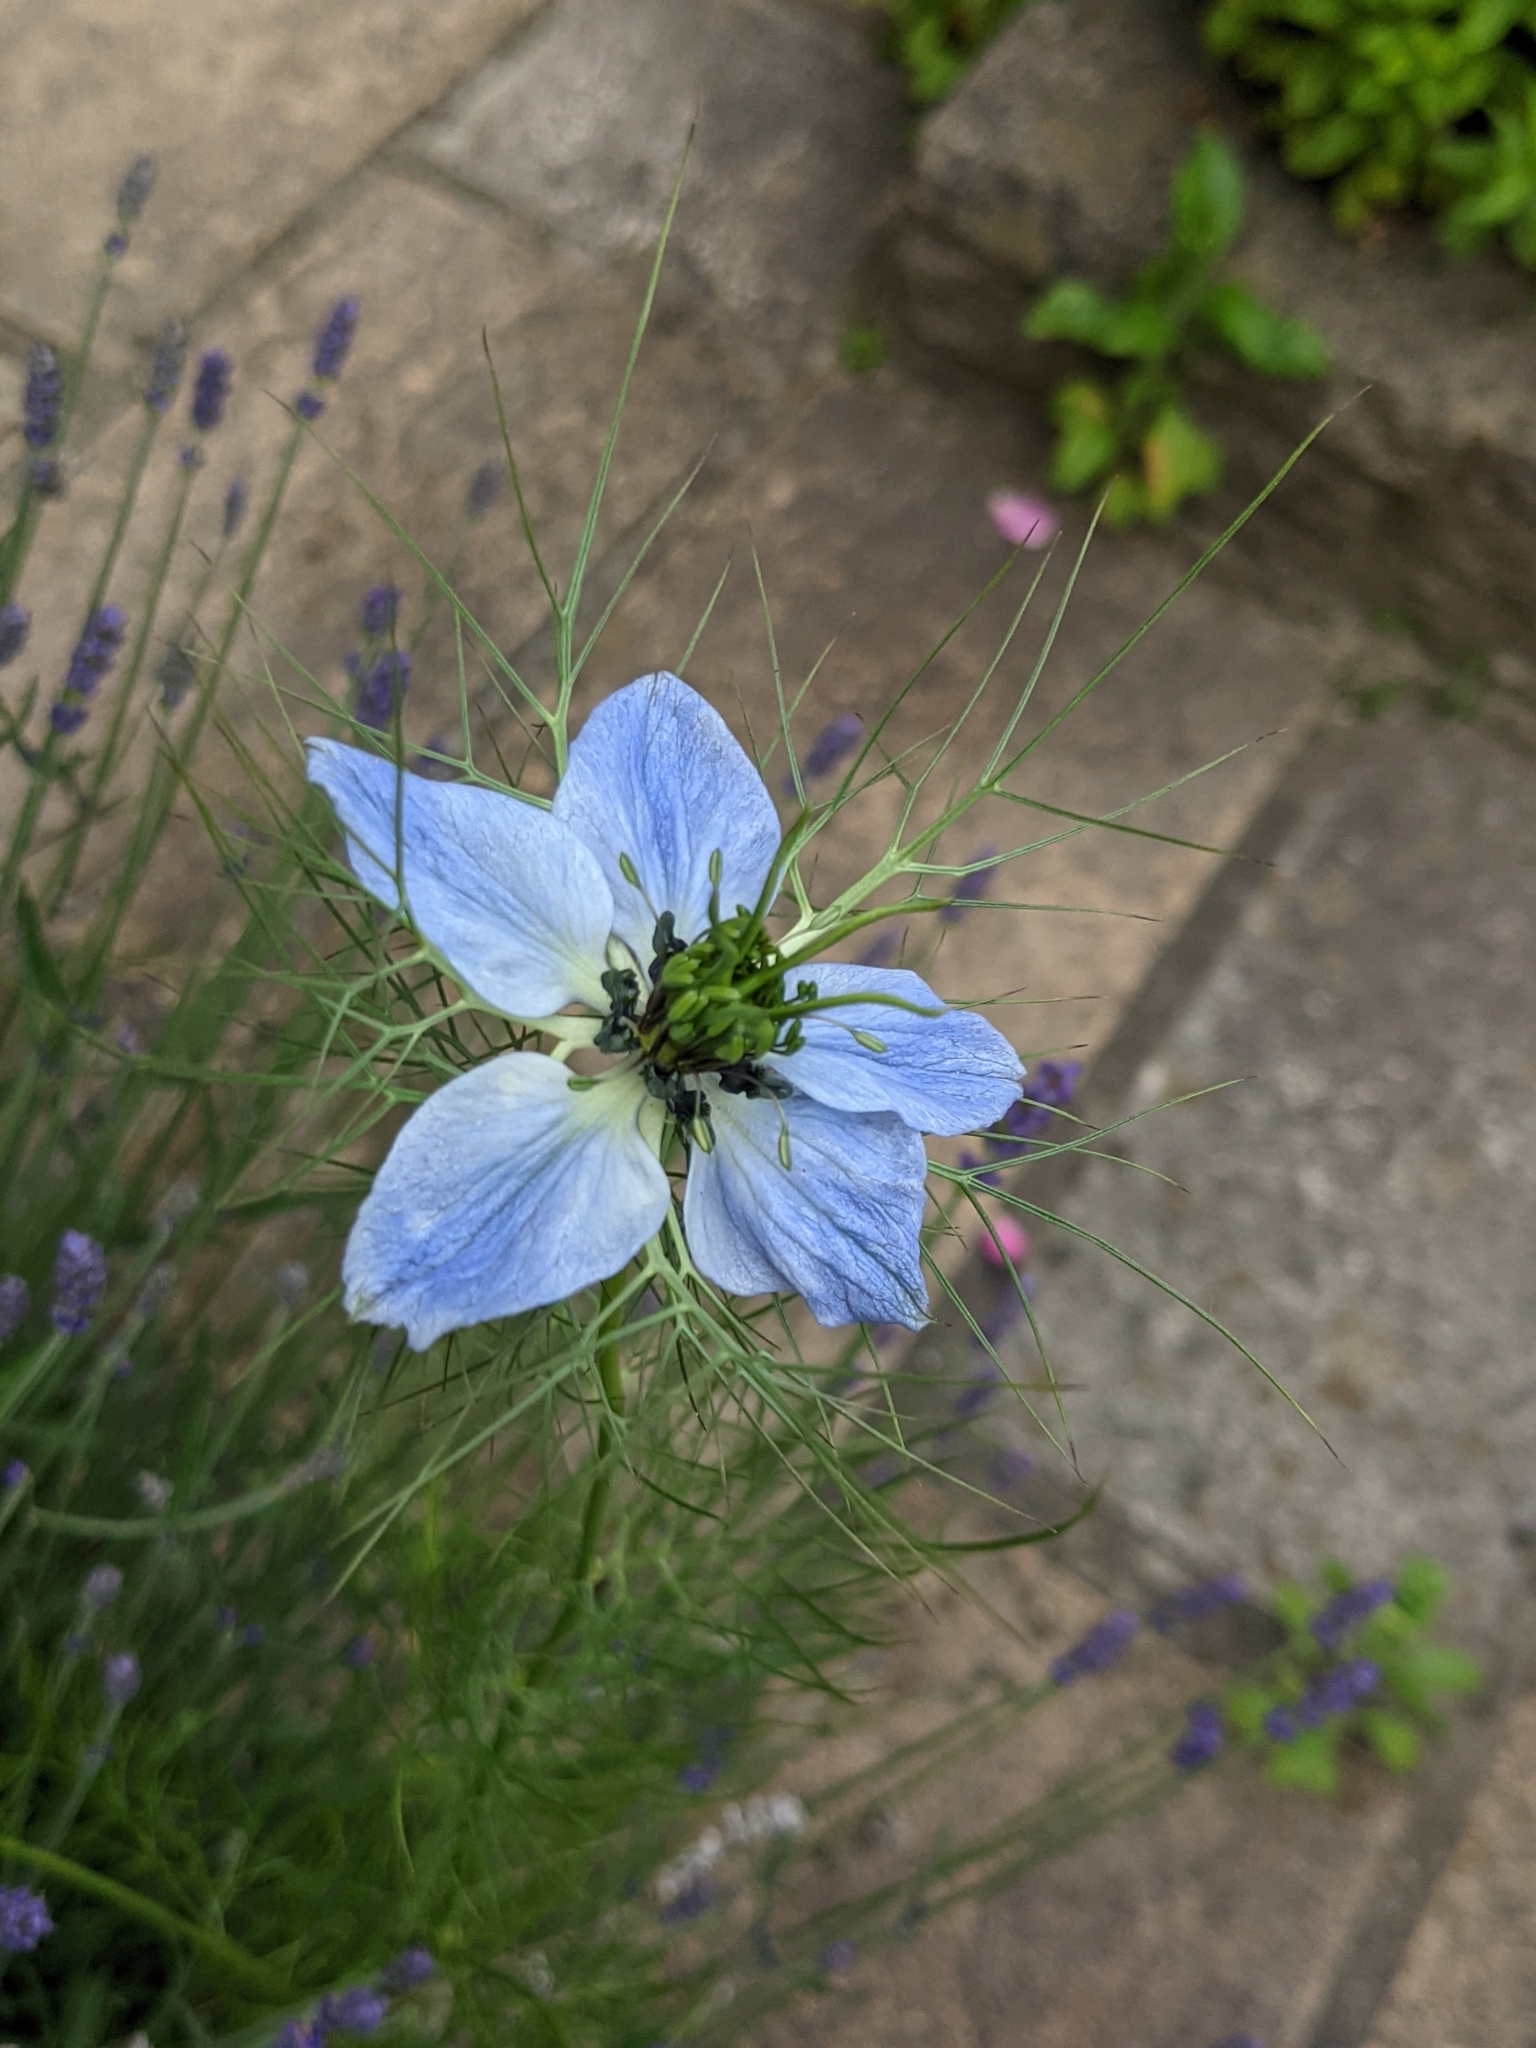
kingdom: Plantae
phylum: Tracheophyta
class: Magnoliopsida
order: Ranunculales
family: Ranunculaceae
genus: Nigella
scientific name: Nigella damascena
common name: Love-in-a-mist
